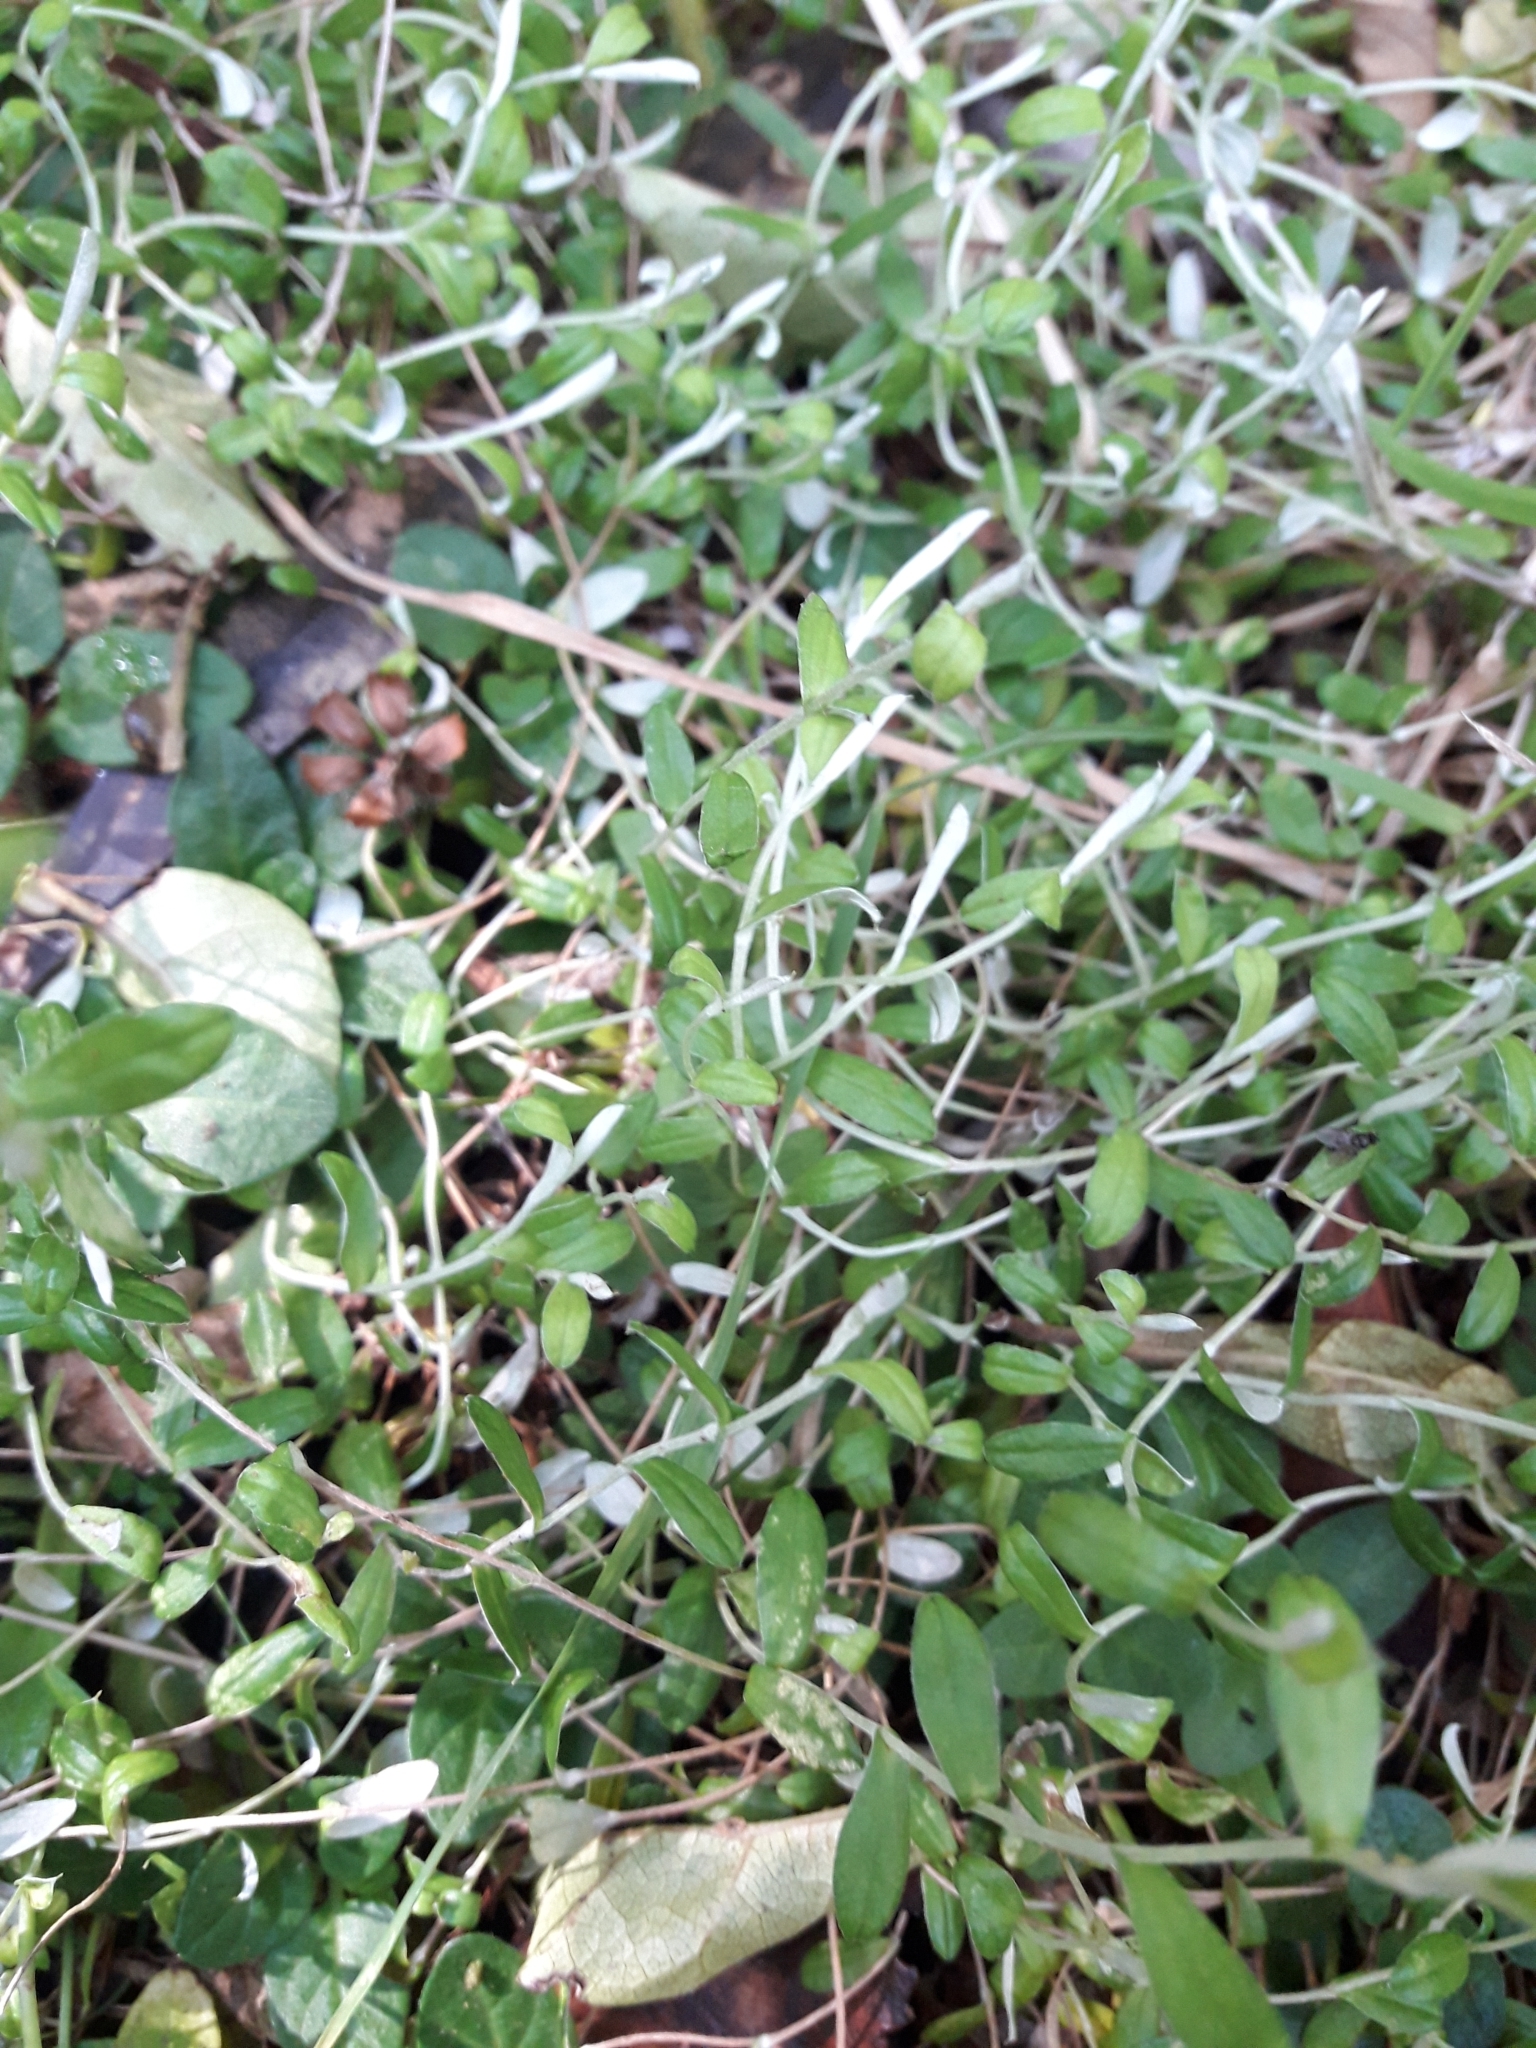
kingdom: Plantae
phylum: Tracheophyta
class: Magnoliopsida
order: Asterales
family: Asteraceae
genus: Helichrysum
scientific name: Helichrysum filicaule
